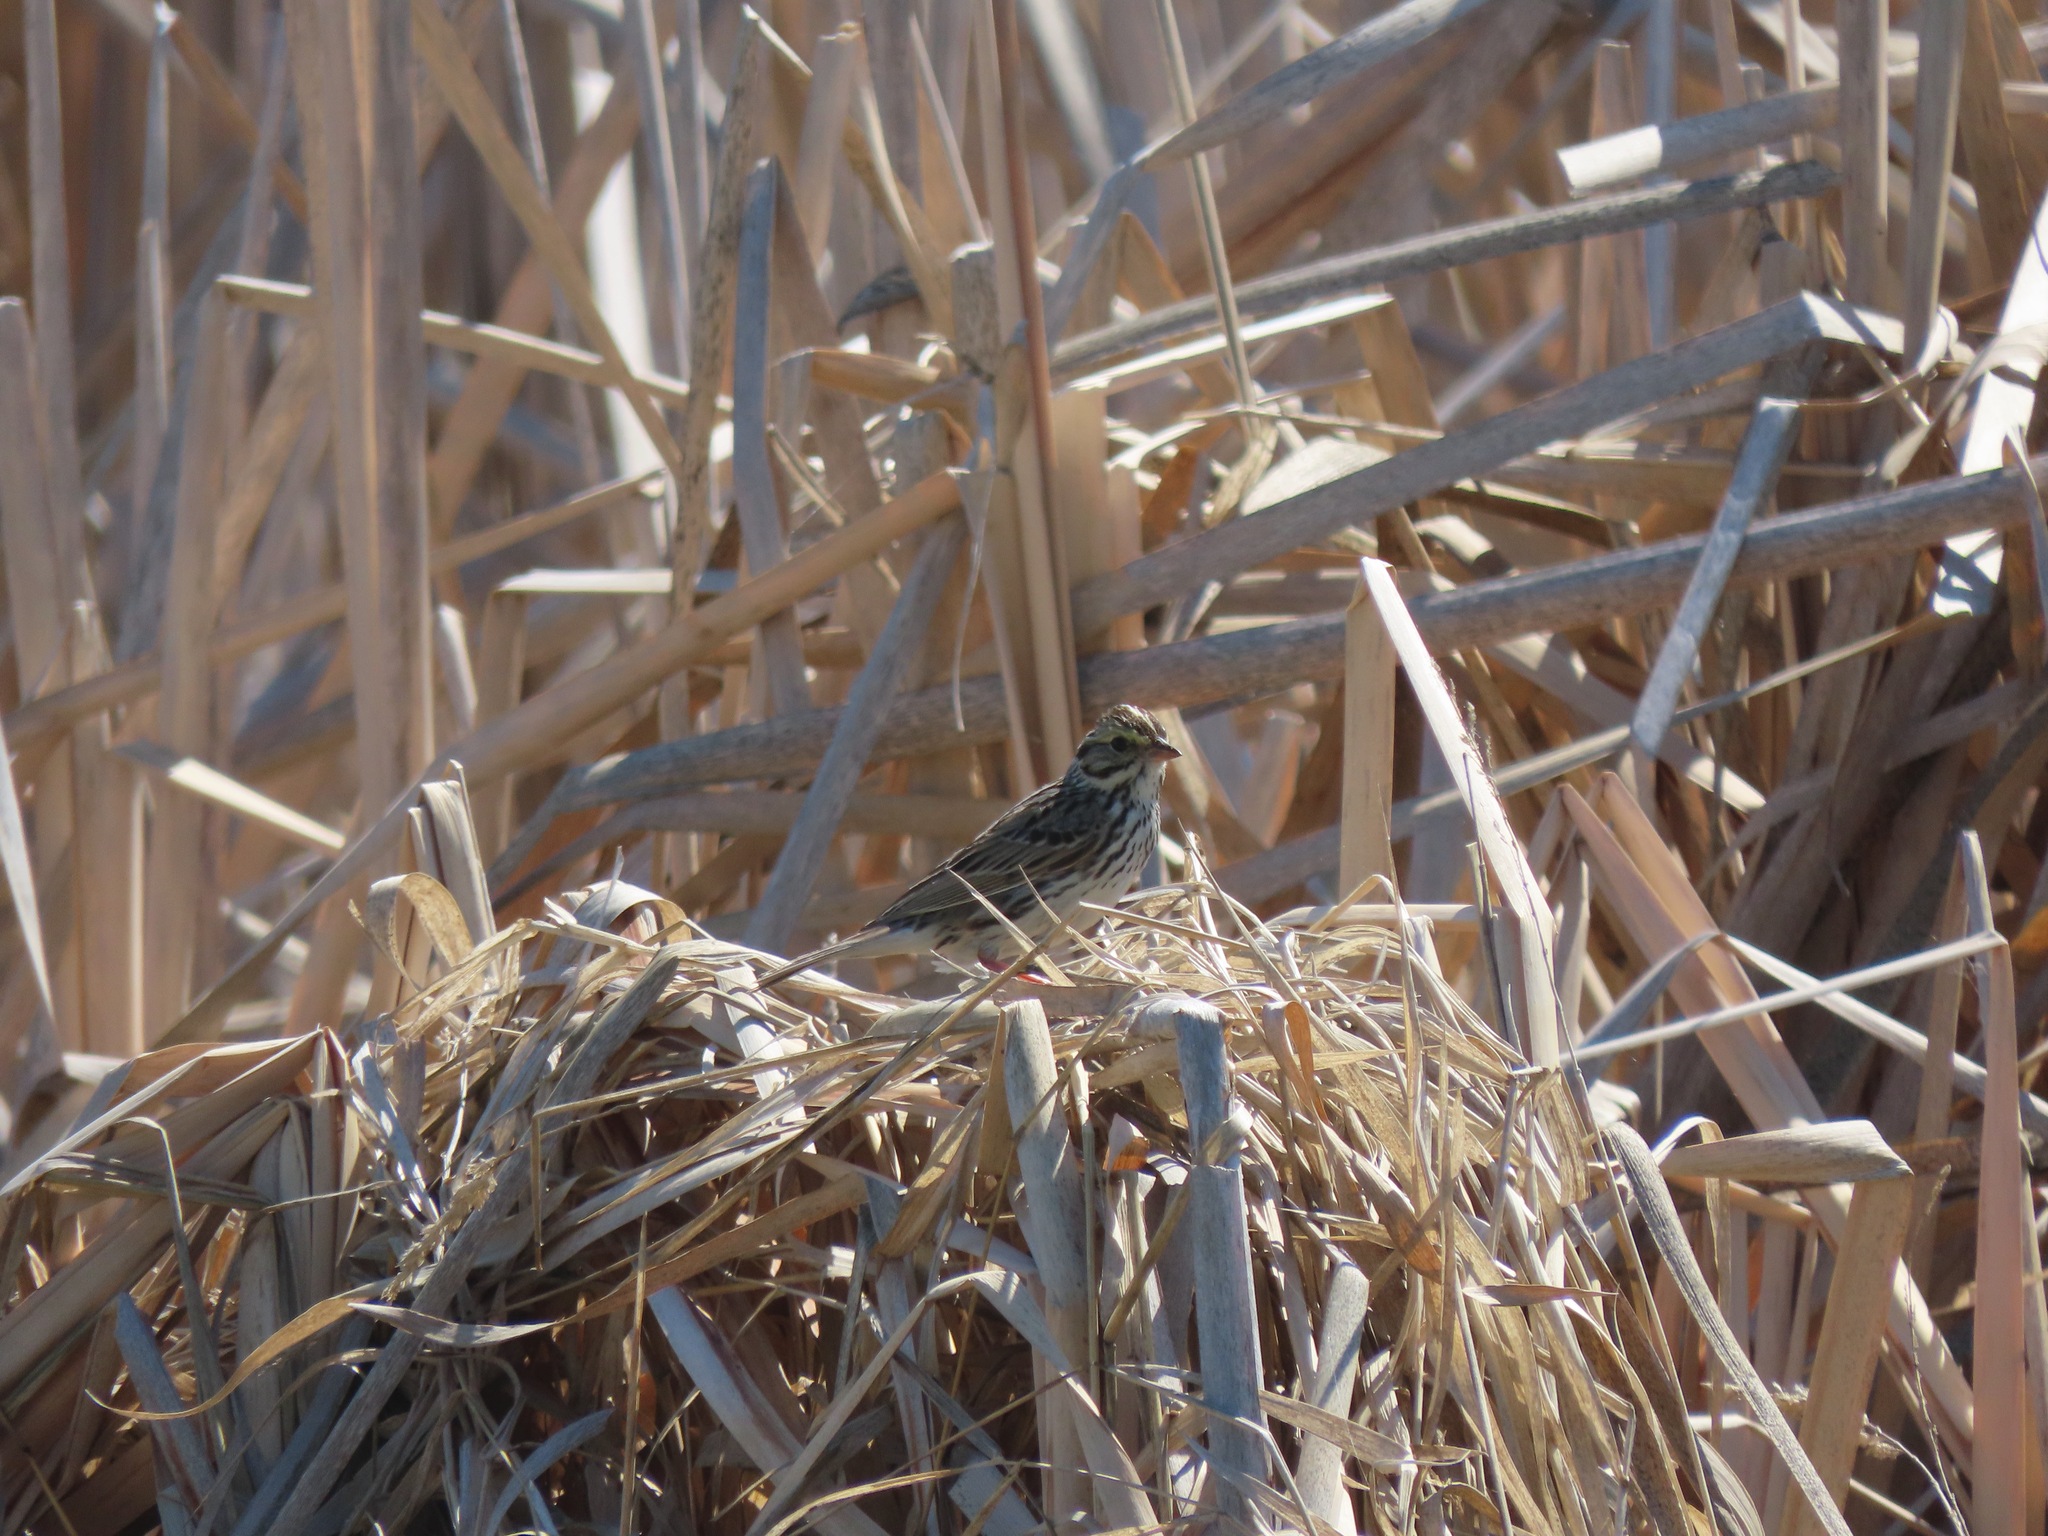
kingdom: Animalia
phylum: Chordata
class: Aves
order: Passeriformes
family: Passerellidae
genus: Passerculus
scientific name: Passerculus sandwichensis
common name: Savannah sparrow
